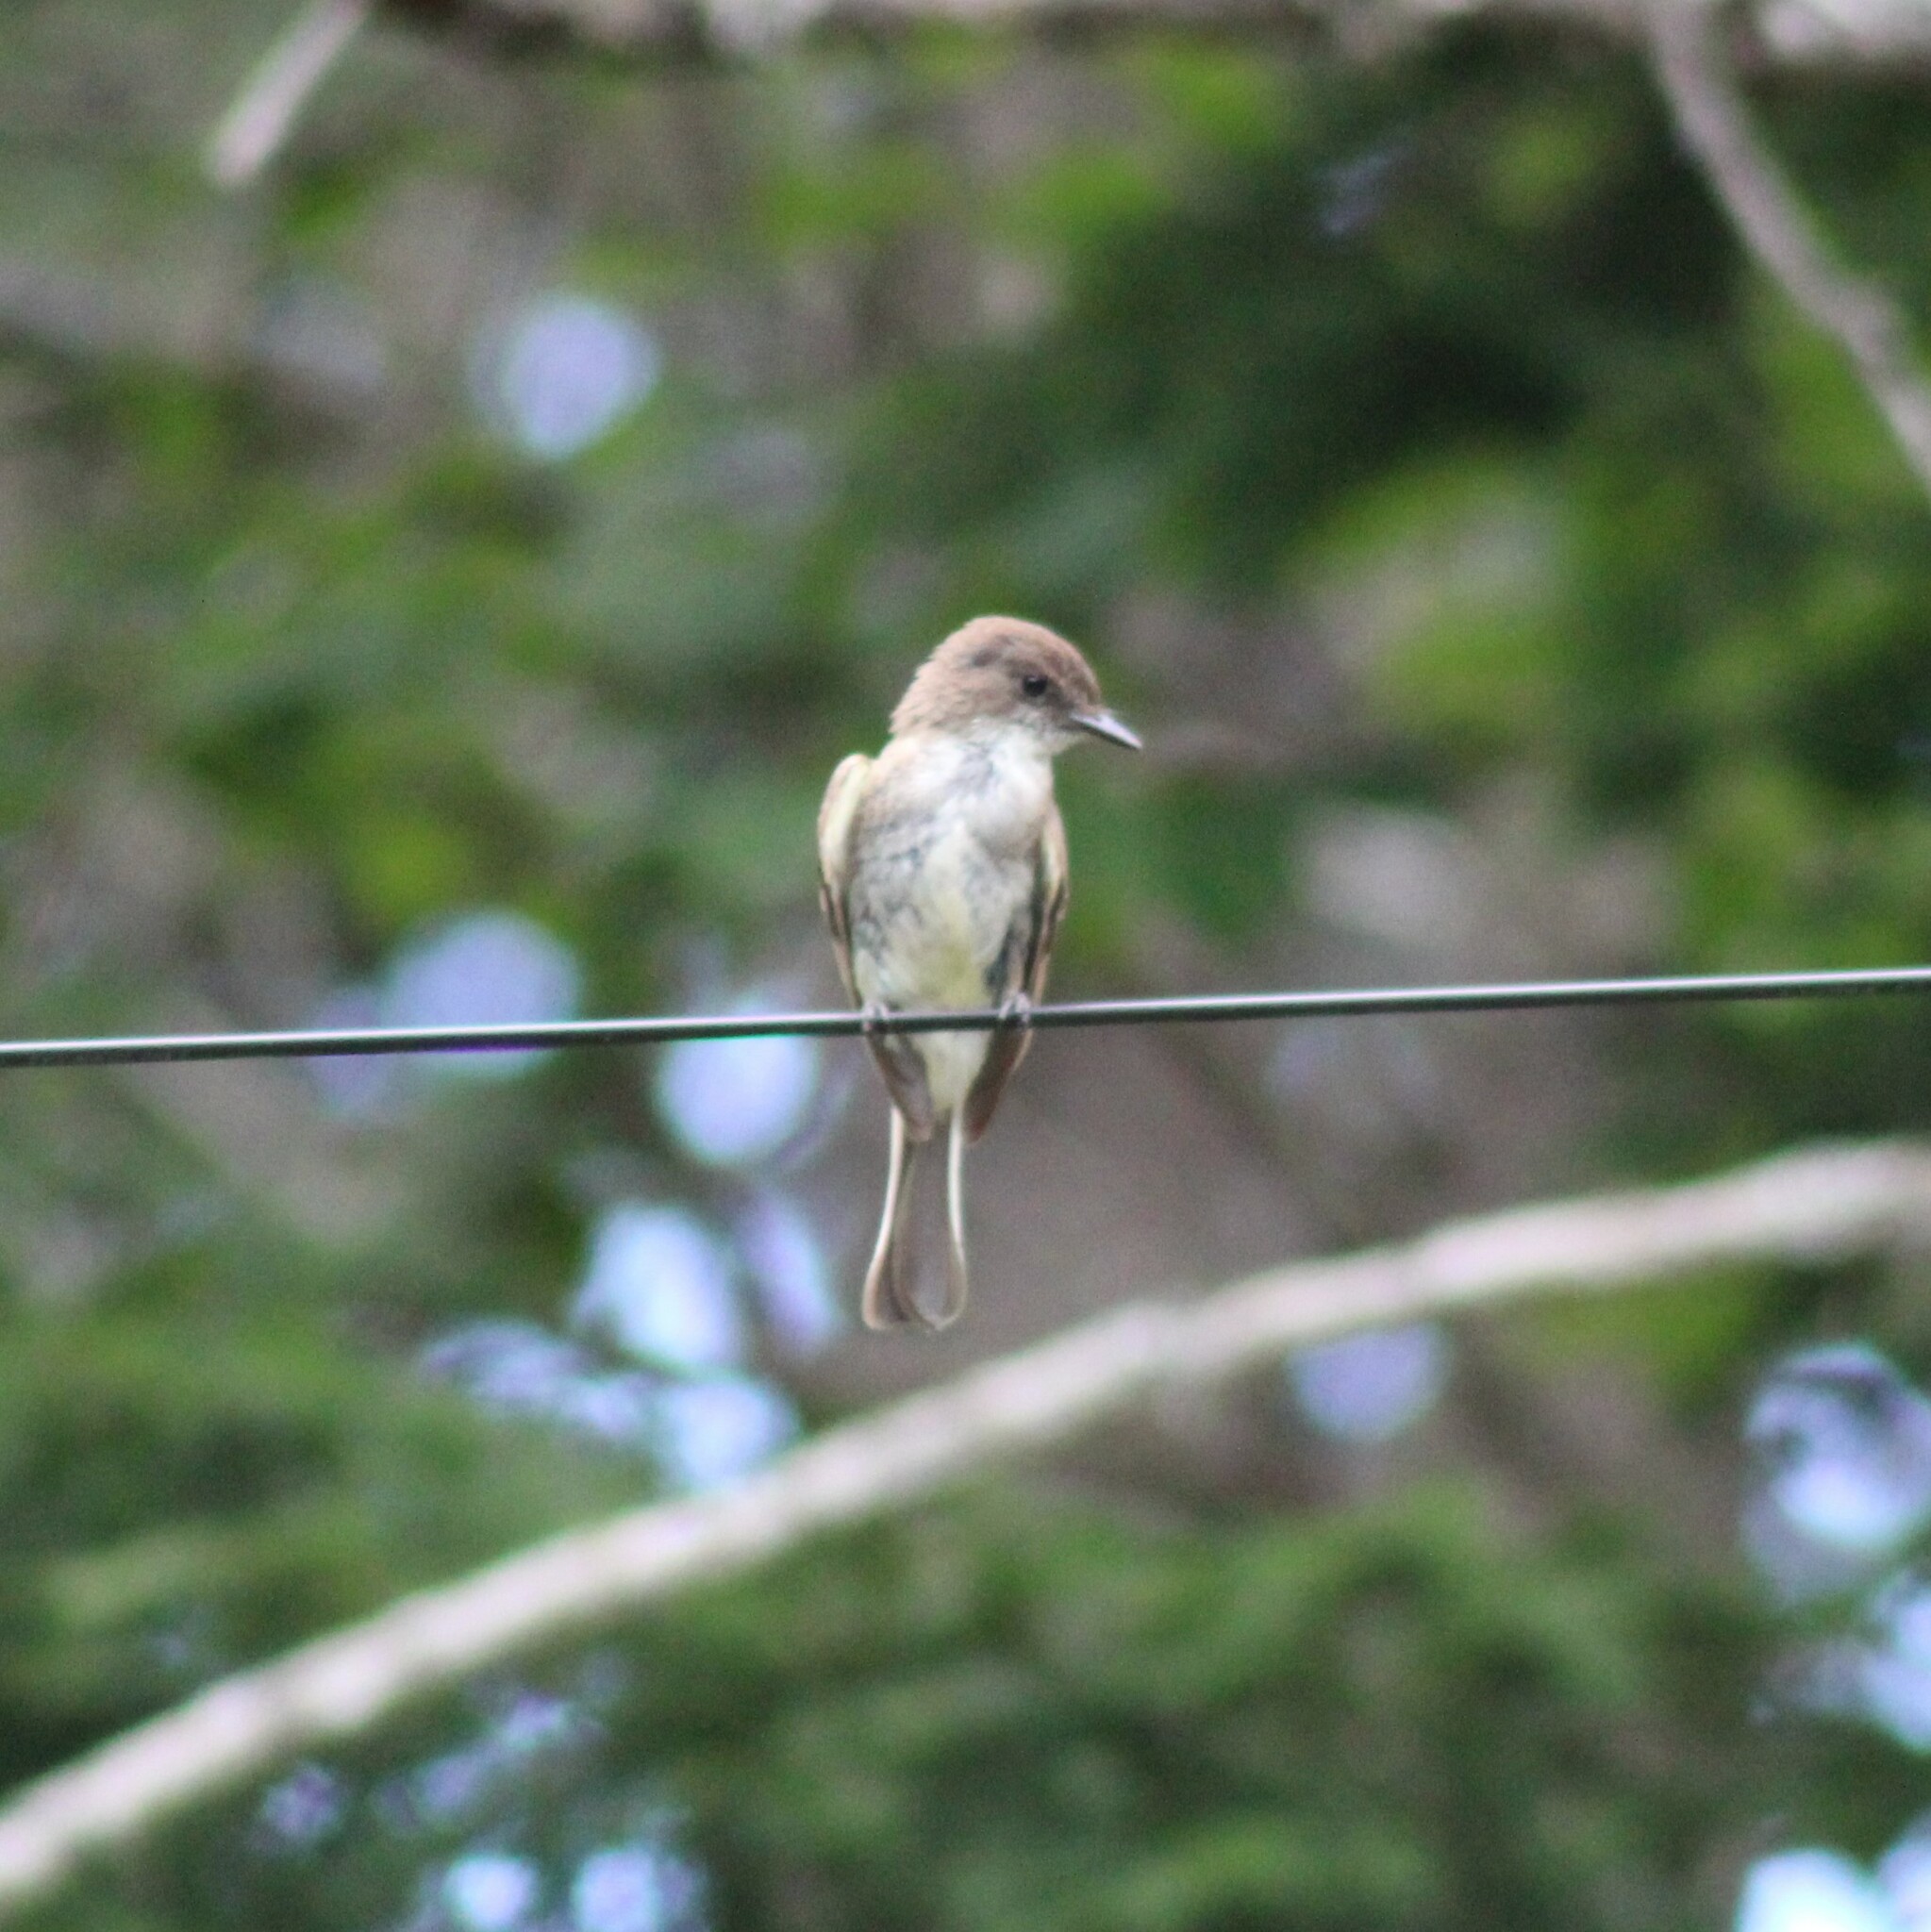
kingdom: Animalia
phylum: Chordata
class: Aves
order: Passeriformes
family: Tyrannidae
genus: Sayornis
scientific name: Sayornis phoebe
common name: Eastern phoebe
